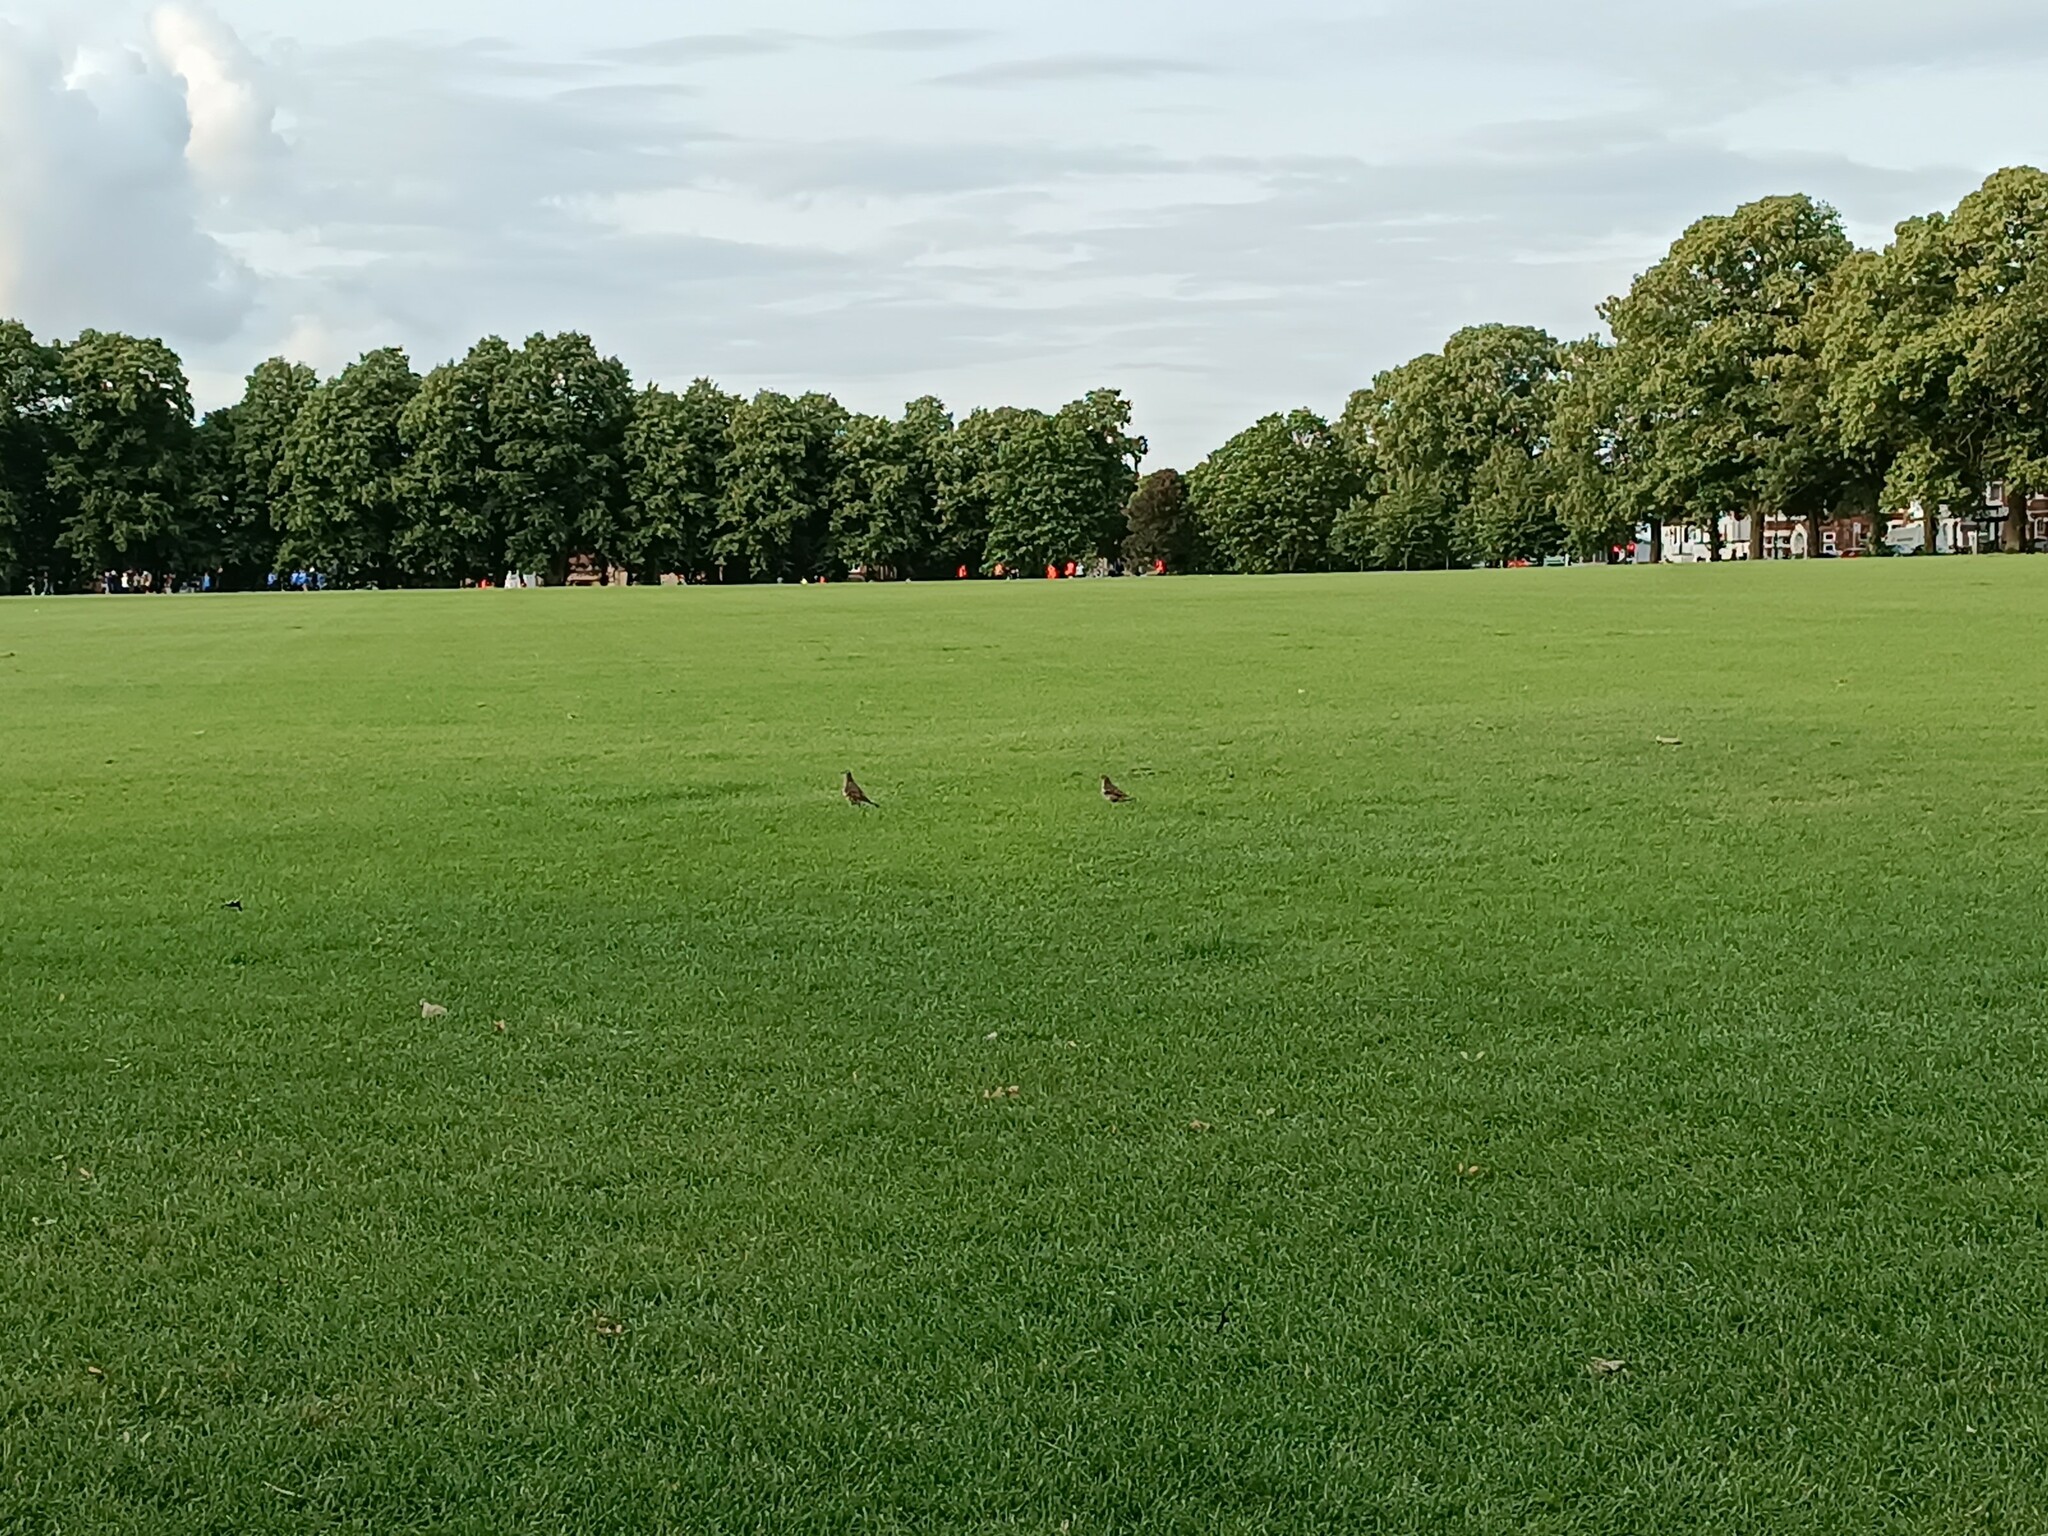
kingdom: Animalia
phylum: Chordata
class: Aves
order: Passeriformes
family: Turdidae
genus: Turdus
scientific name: Turdus viscivorus
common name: Mistle thrush
